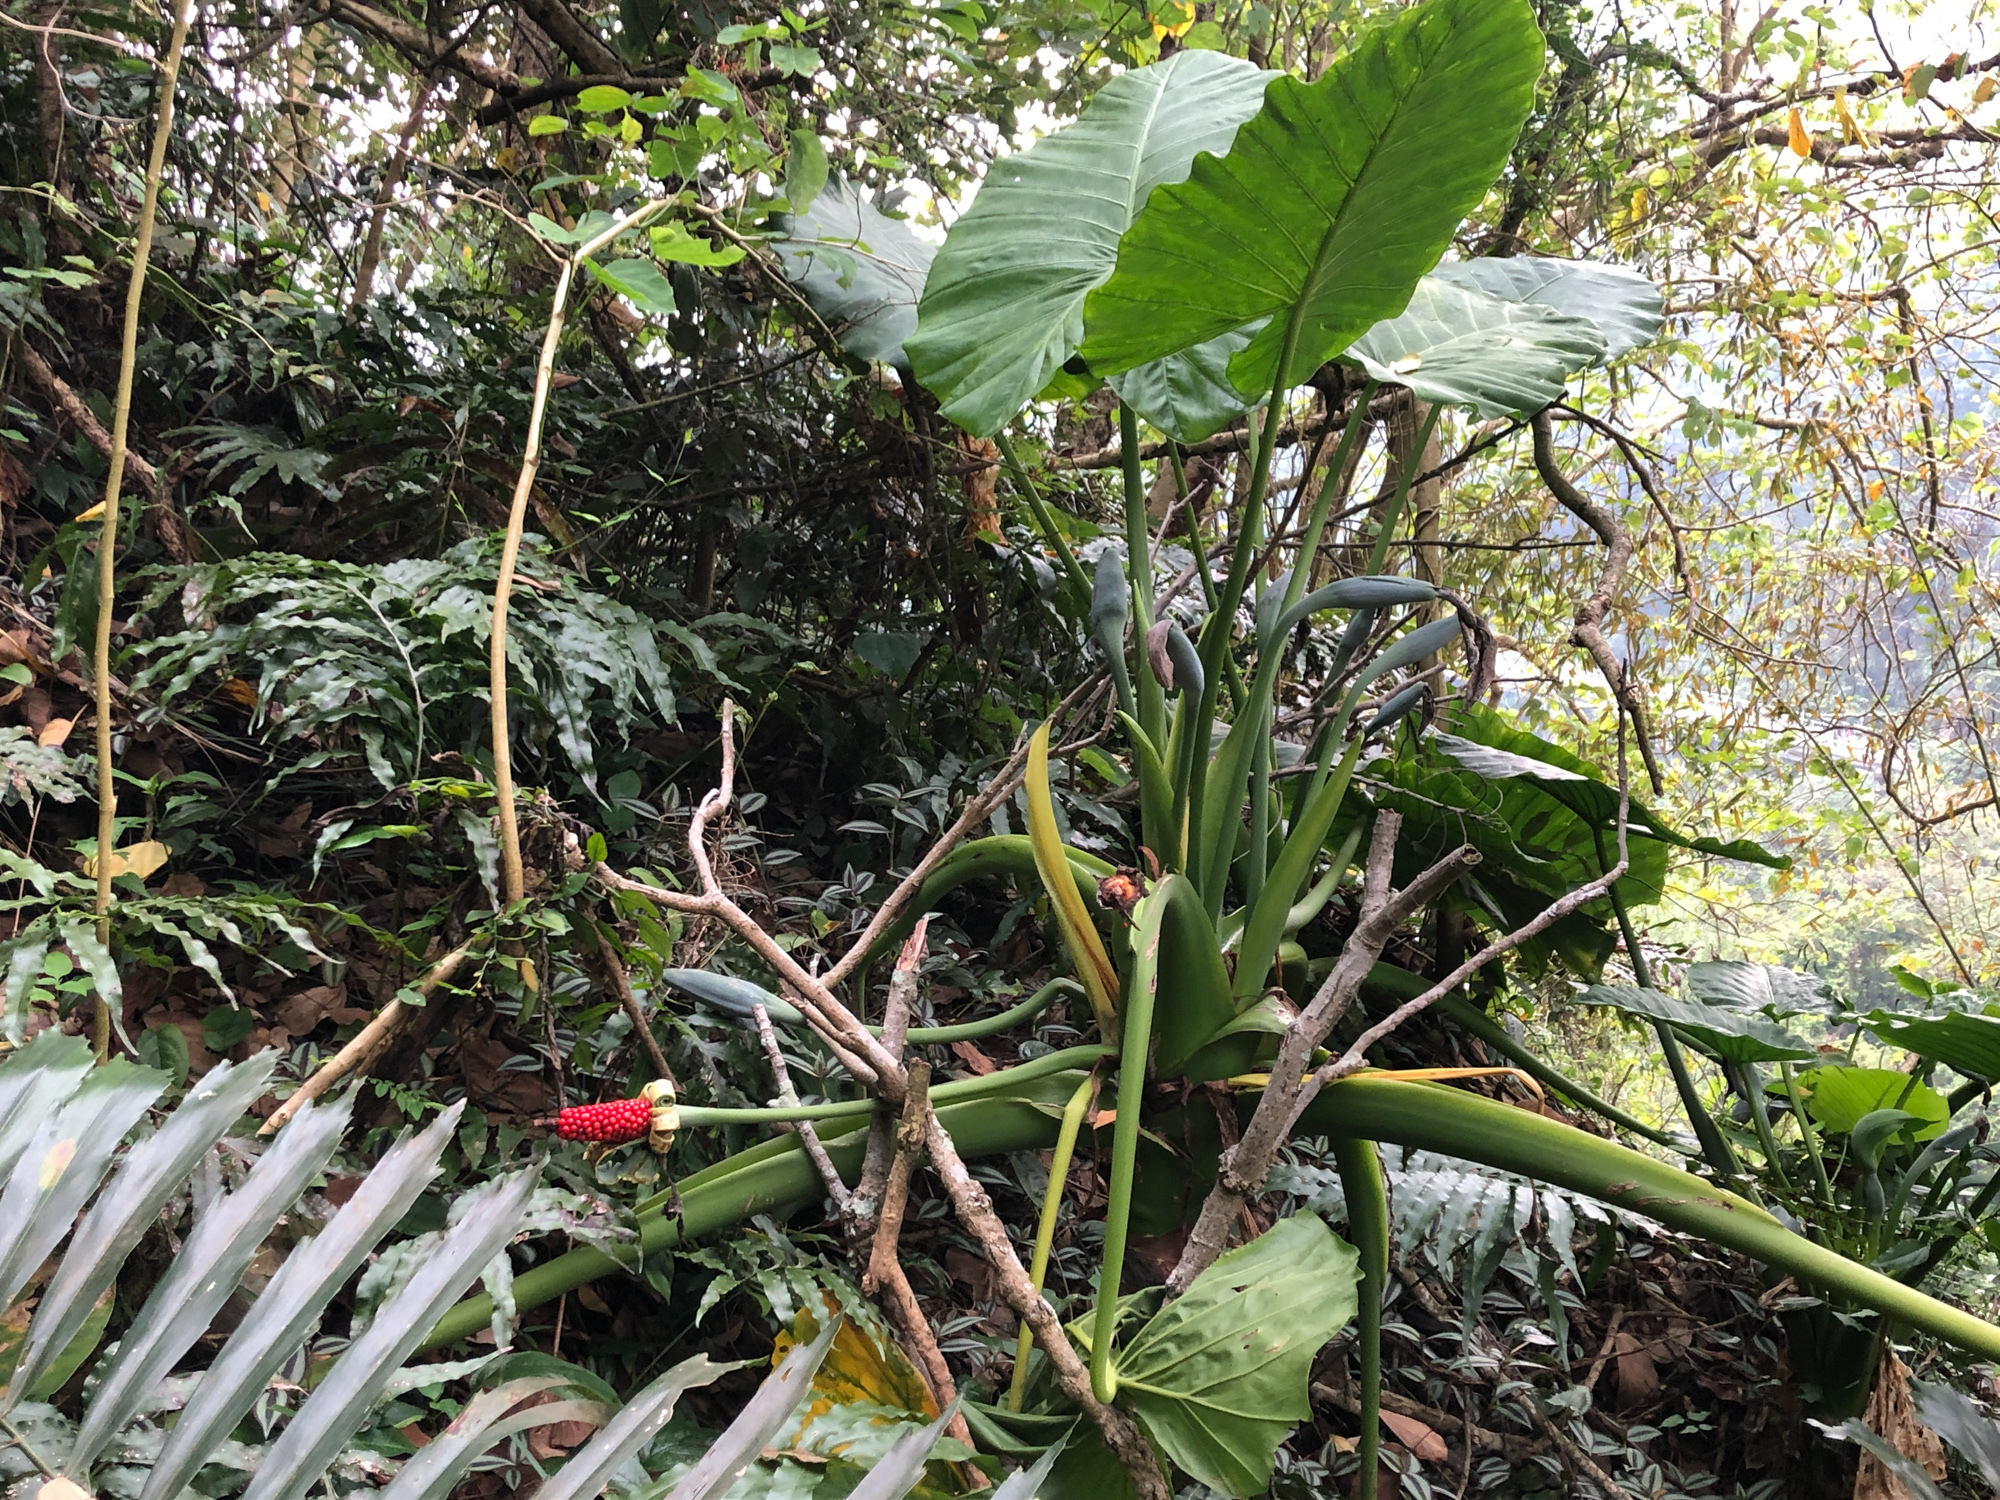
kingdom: Plantae
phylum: Tracheophyta
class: Liliopsida
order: Alismatales
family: Araceae
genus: Alocasia
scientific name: Alocasia odora
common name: Asian taro
